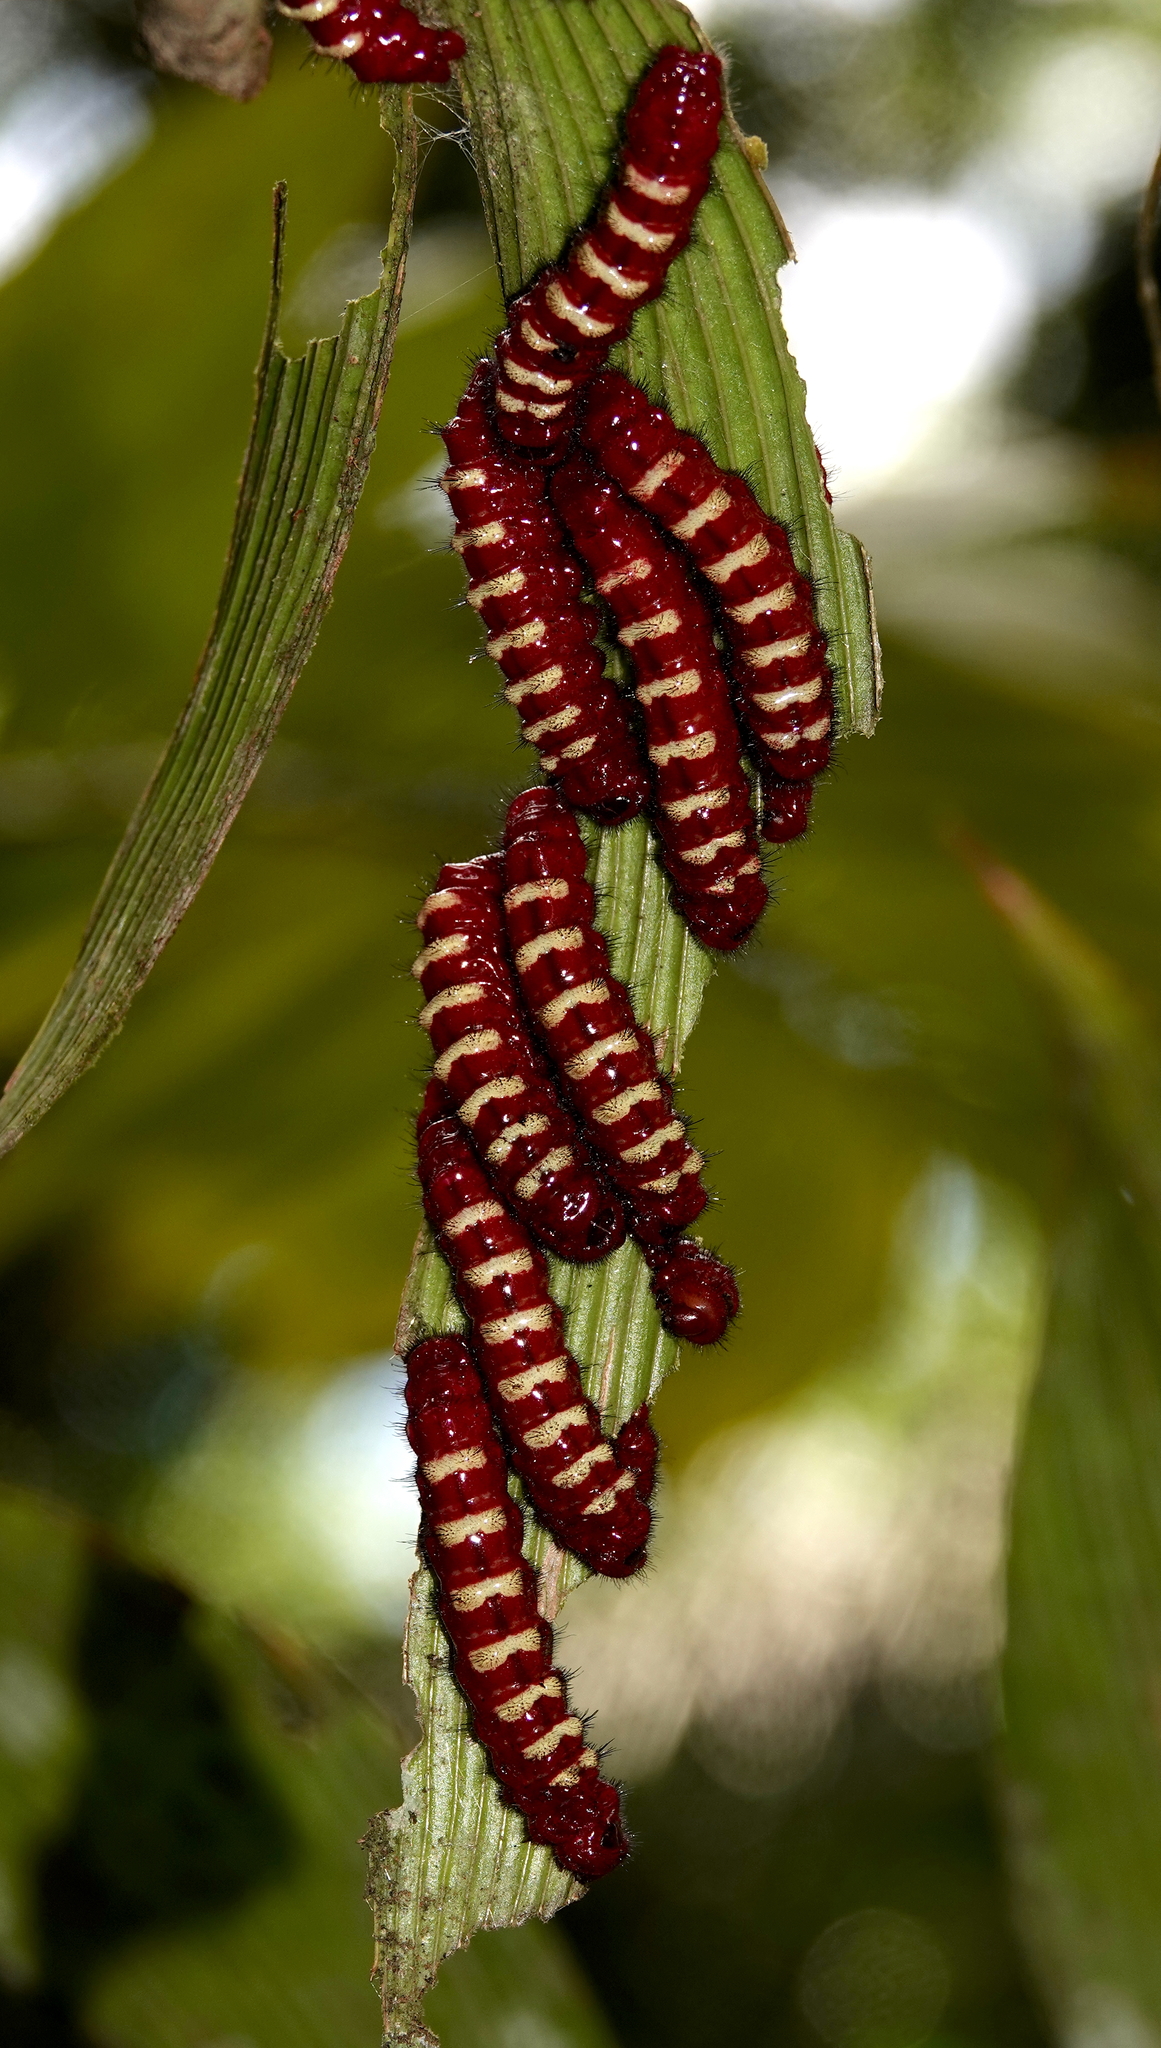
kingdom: Animalia
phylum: Arthropoda
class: Insecta
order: Lepidoptera
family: Lycaenidae
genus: Eumaeus
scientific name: Eumaeus godartii
